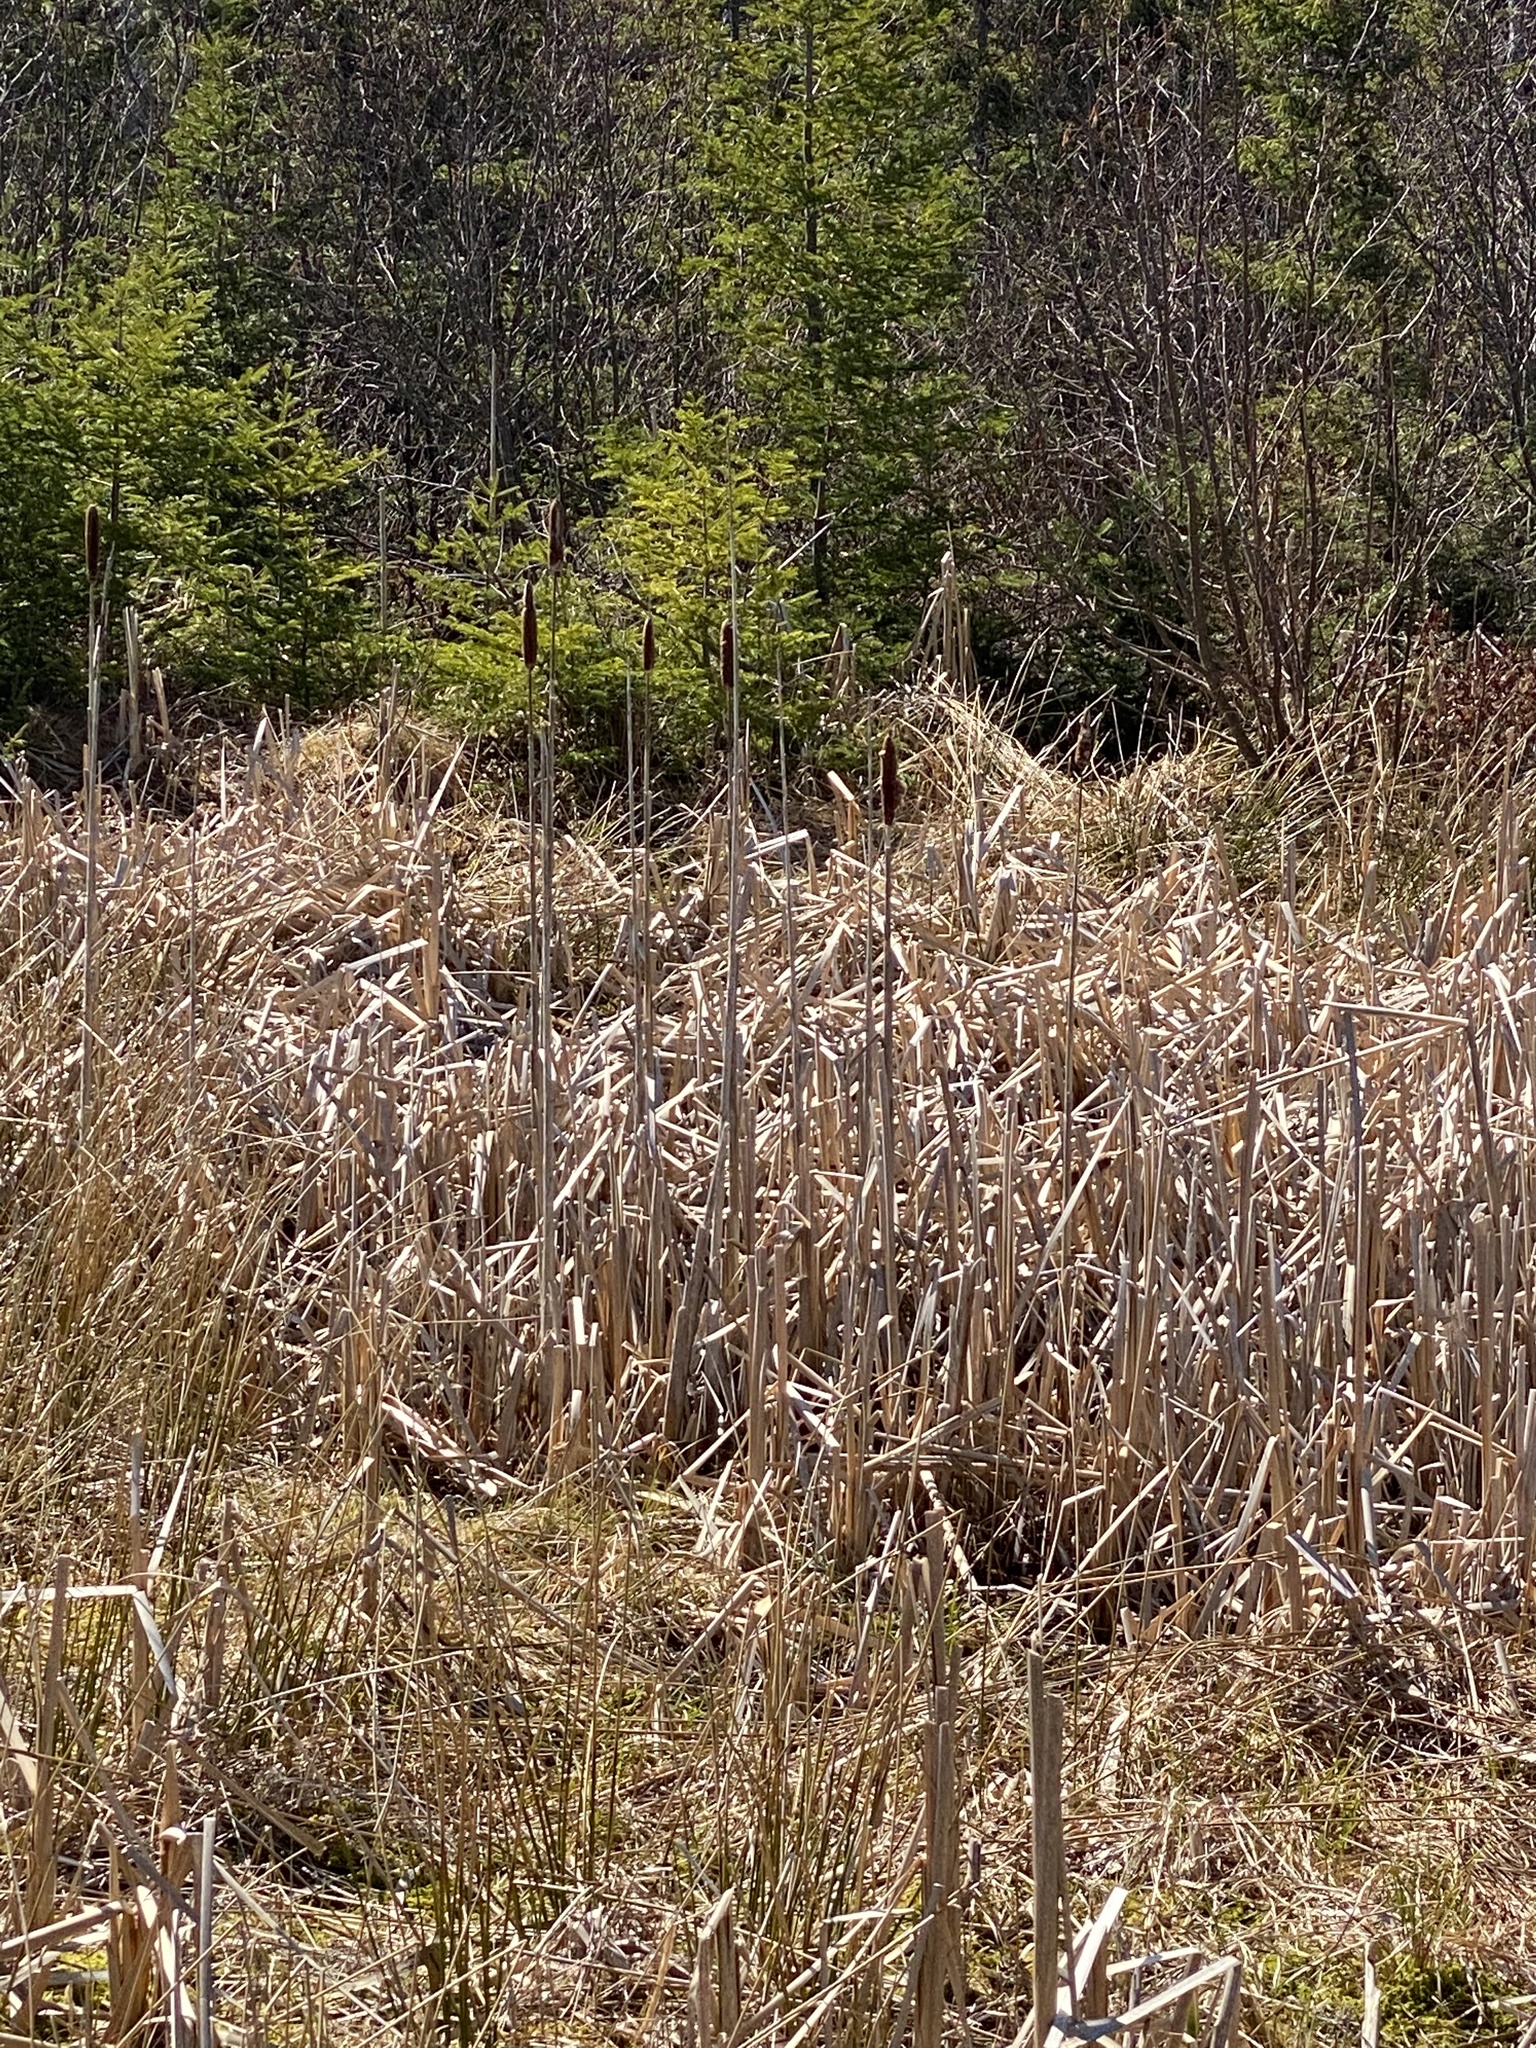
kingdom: Plantae
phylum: Tracheophyta
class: Liliopsida
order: Poales
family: Typhaceae
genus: Typha
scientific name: Typha latifolia
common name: Broadleaf cattail
